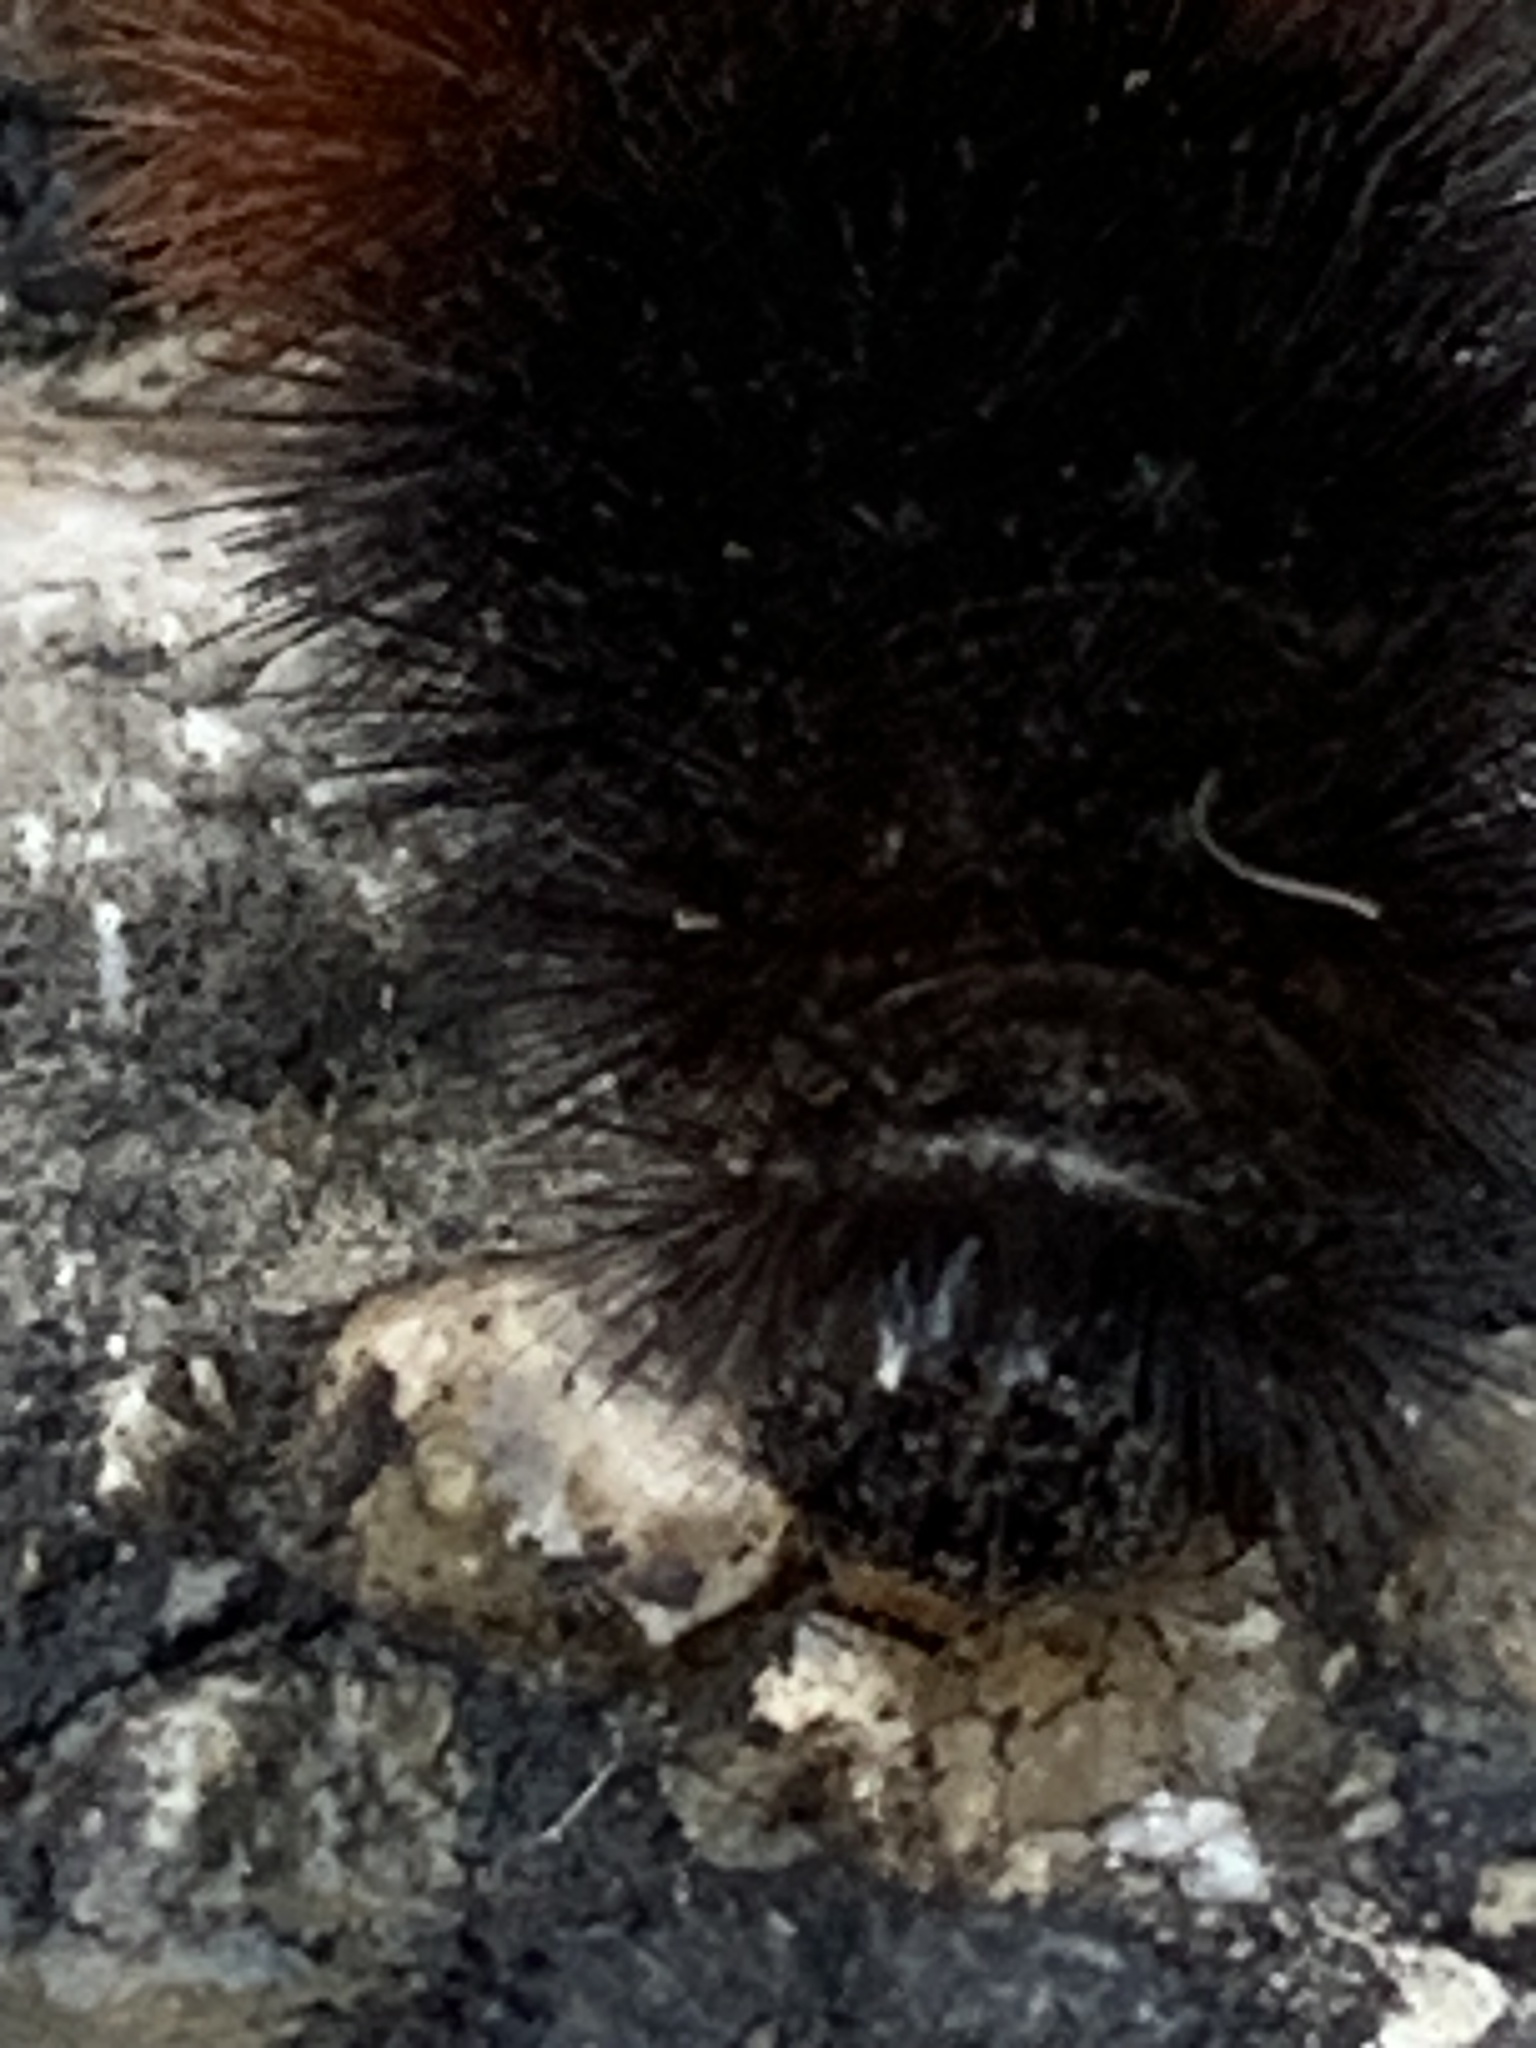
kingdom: Animalia
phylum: Arthropoda
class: Insecta
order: Lepidoptera
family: Erebidae
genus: Pyrrharctia
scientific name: Pyrrharctia isabella
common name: Isabella tiger moth
